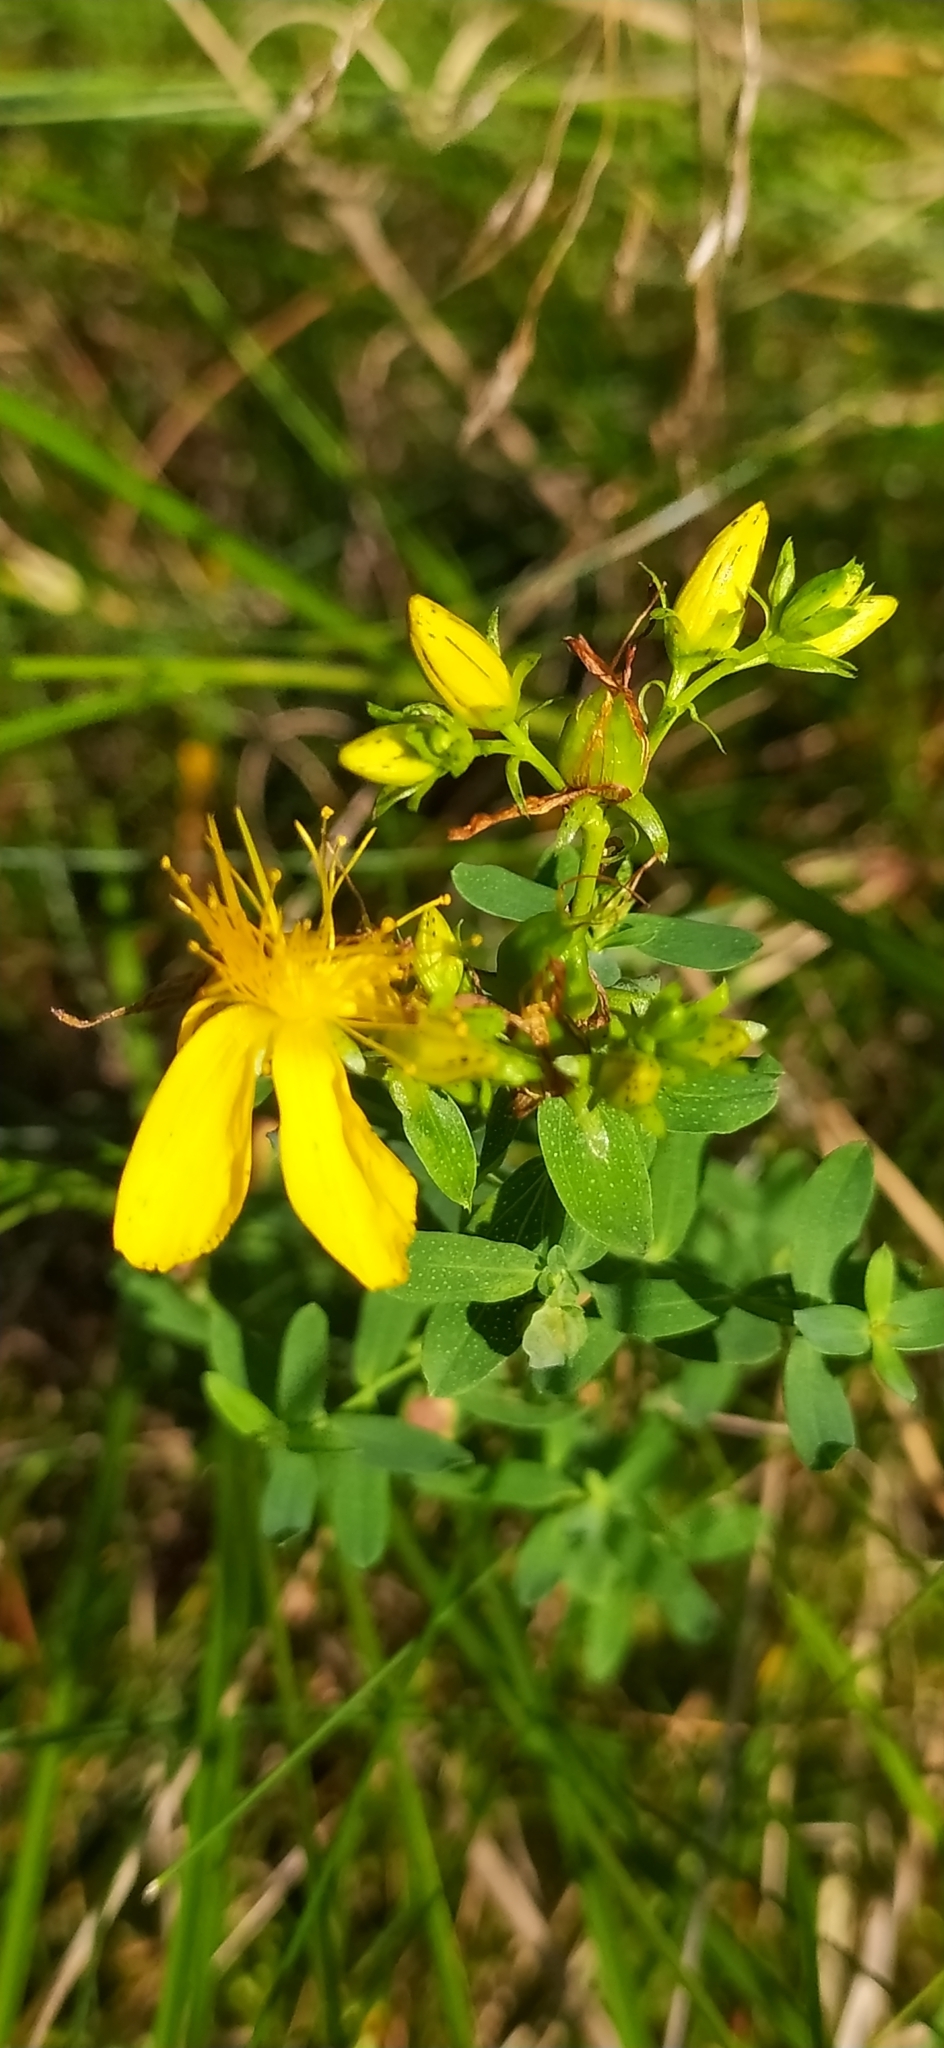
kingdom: Plantae
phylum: Tracheophyta
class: Magnoliopsida
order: Malpighiales
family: Hypericaceae
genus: Hypericum
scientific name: Hypericum perforatum
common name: Common st. johnswort
